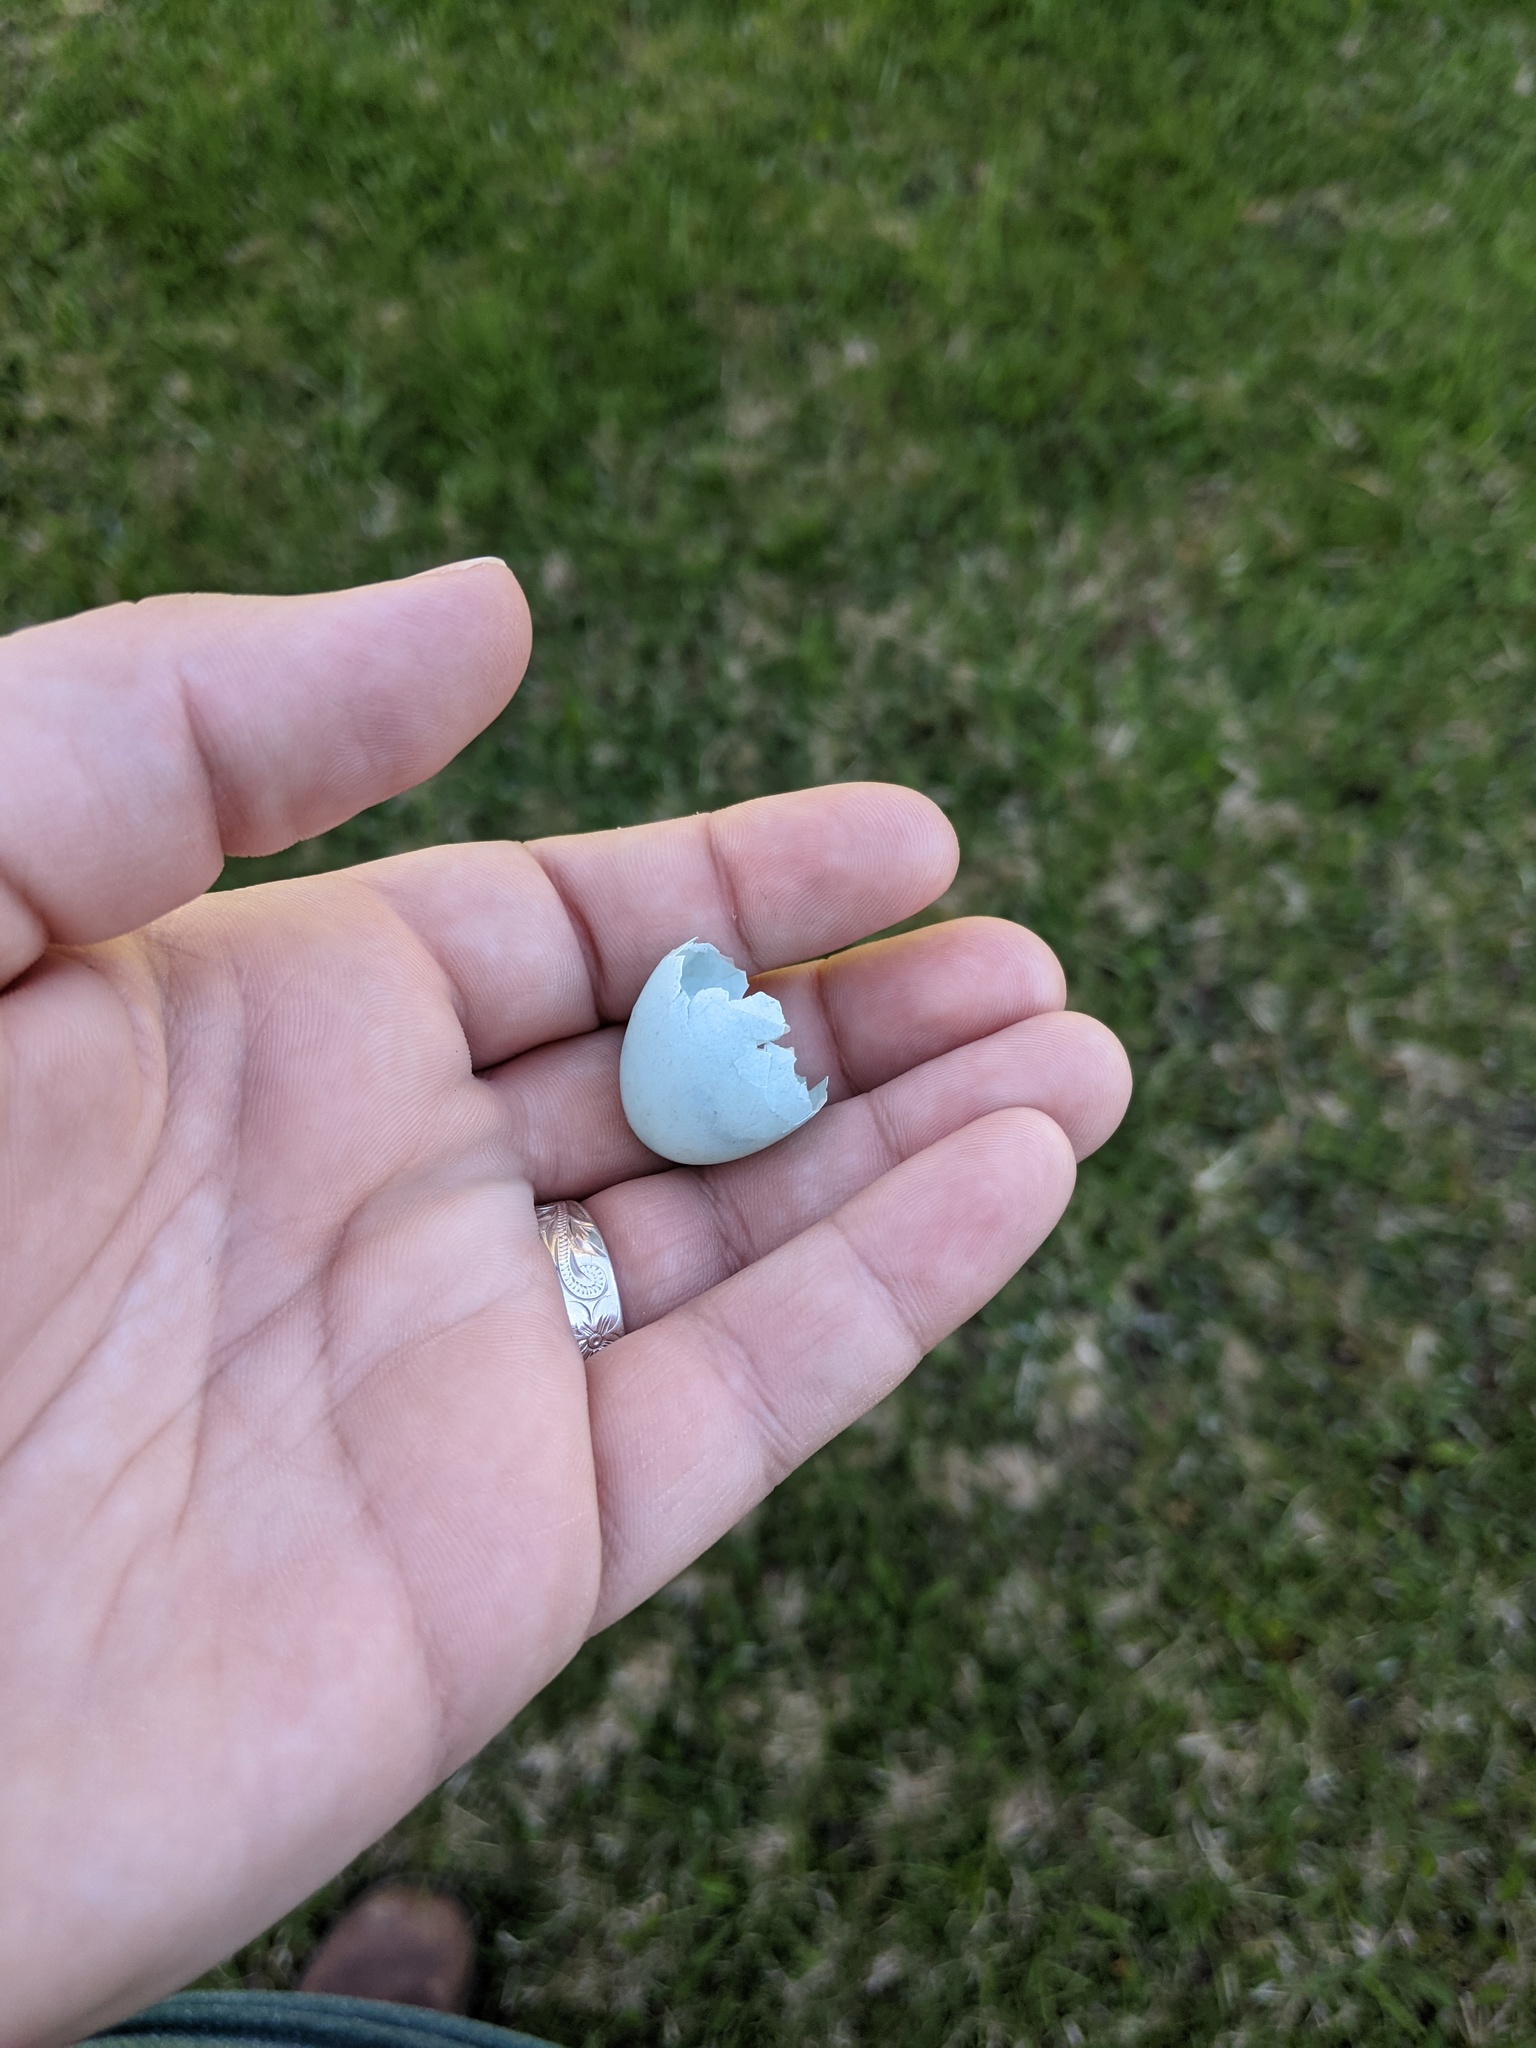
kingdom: Animalia
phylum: Chordata
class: Aves
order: Passeriformes
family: Turdidae
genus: Turdus
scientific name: Turdus migratorius
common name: American robin
